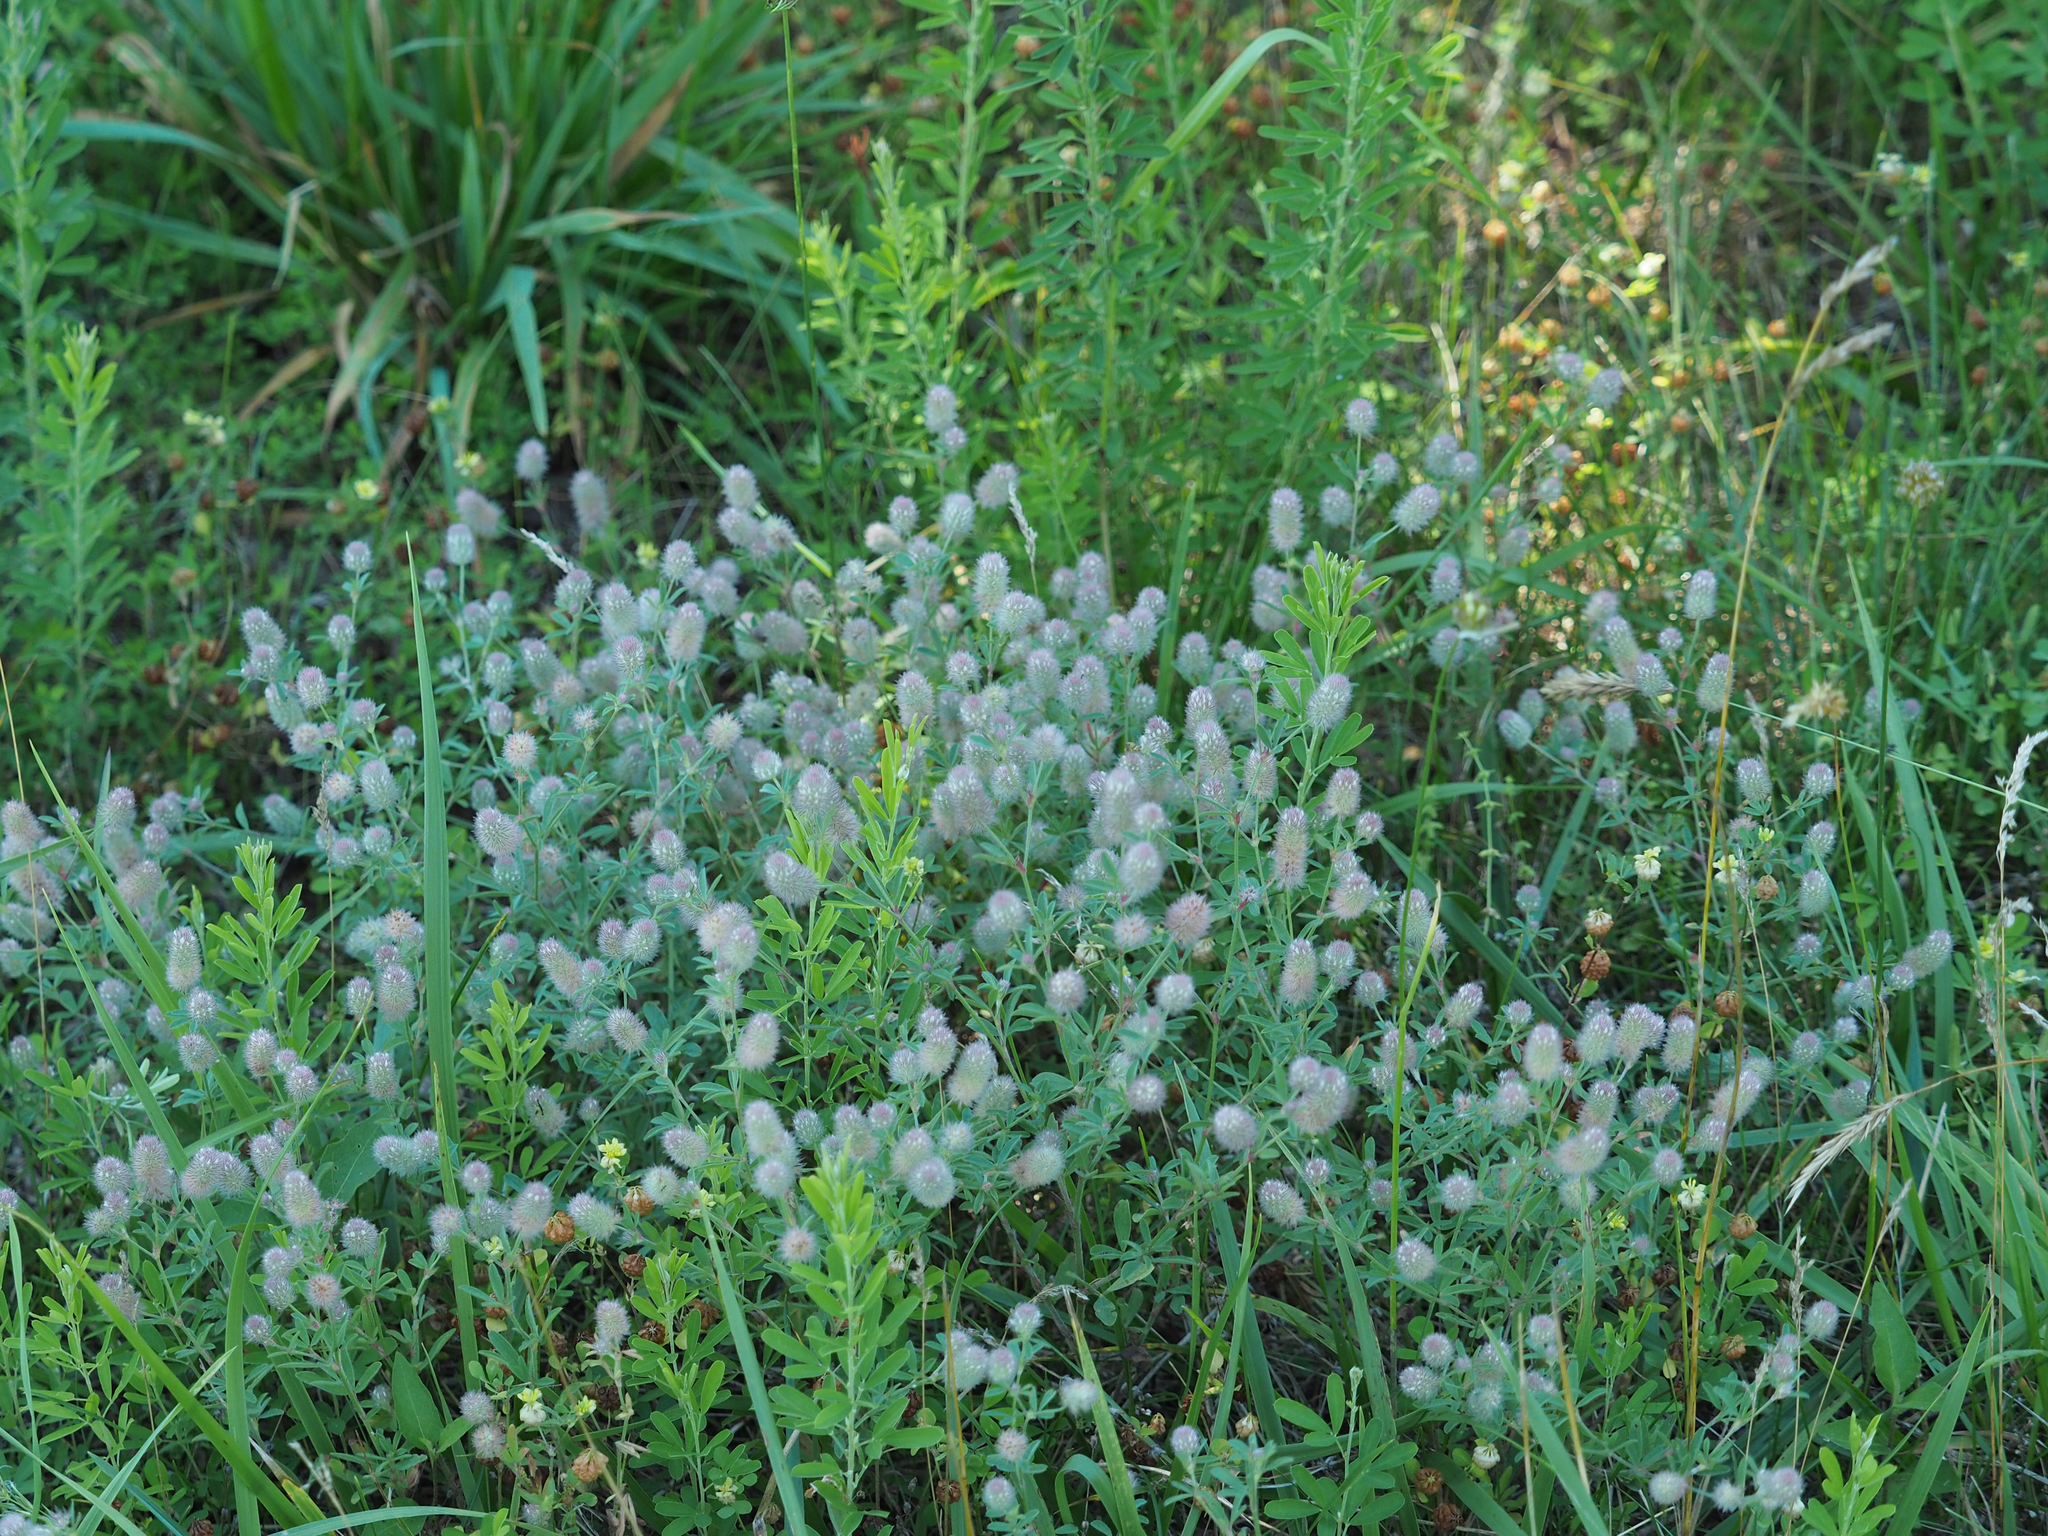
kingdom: Plantae
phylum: Tracheophyta
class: Magnoliopsida
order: Fabales
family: Fabaceae
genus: Trifolium
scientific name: Trifolium arvense
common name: Hare's-foot clover
